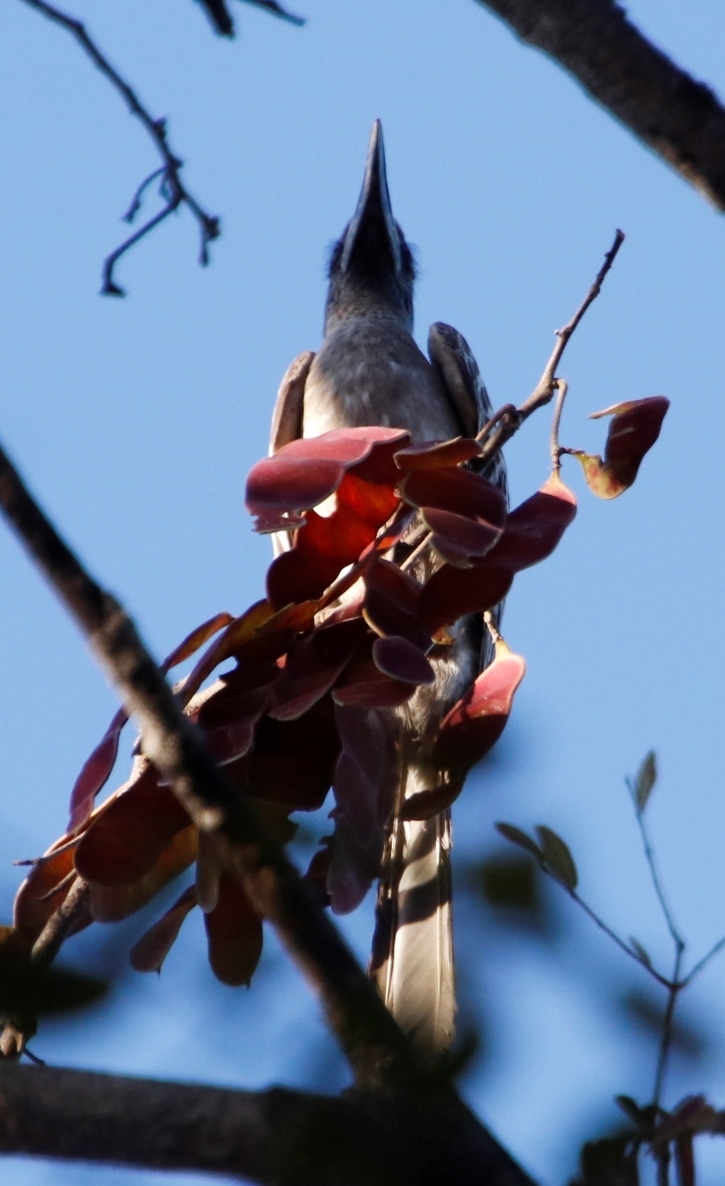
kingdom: Animalia
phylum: Chordata
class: Aves
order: Bucerotiformes
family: Bucerotidae
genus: Lophoceros
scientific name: Lophoceros nasutus
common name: African grey hornbill
